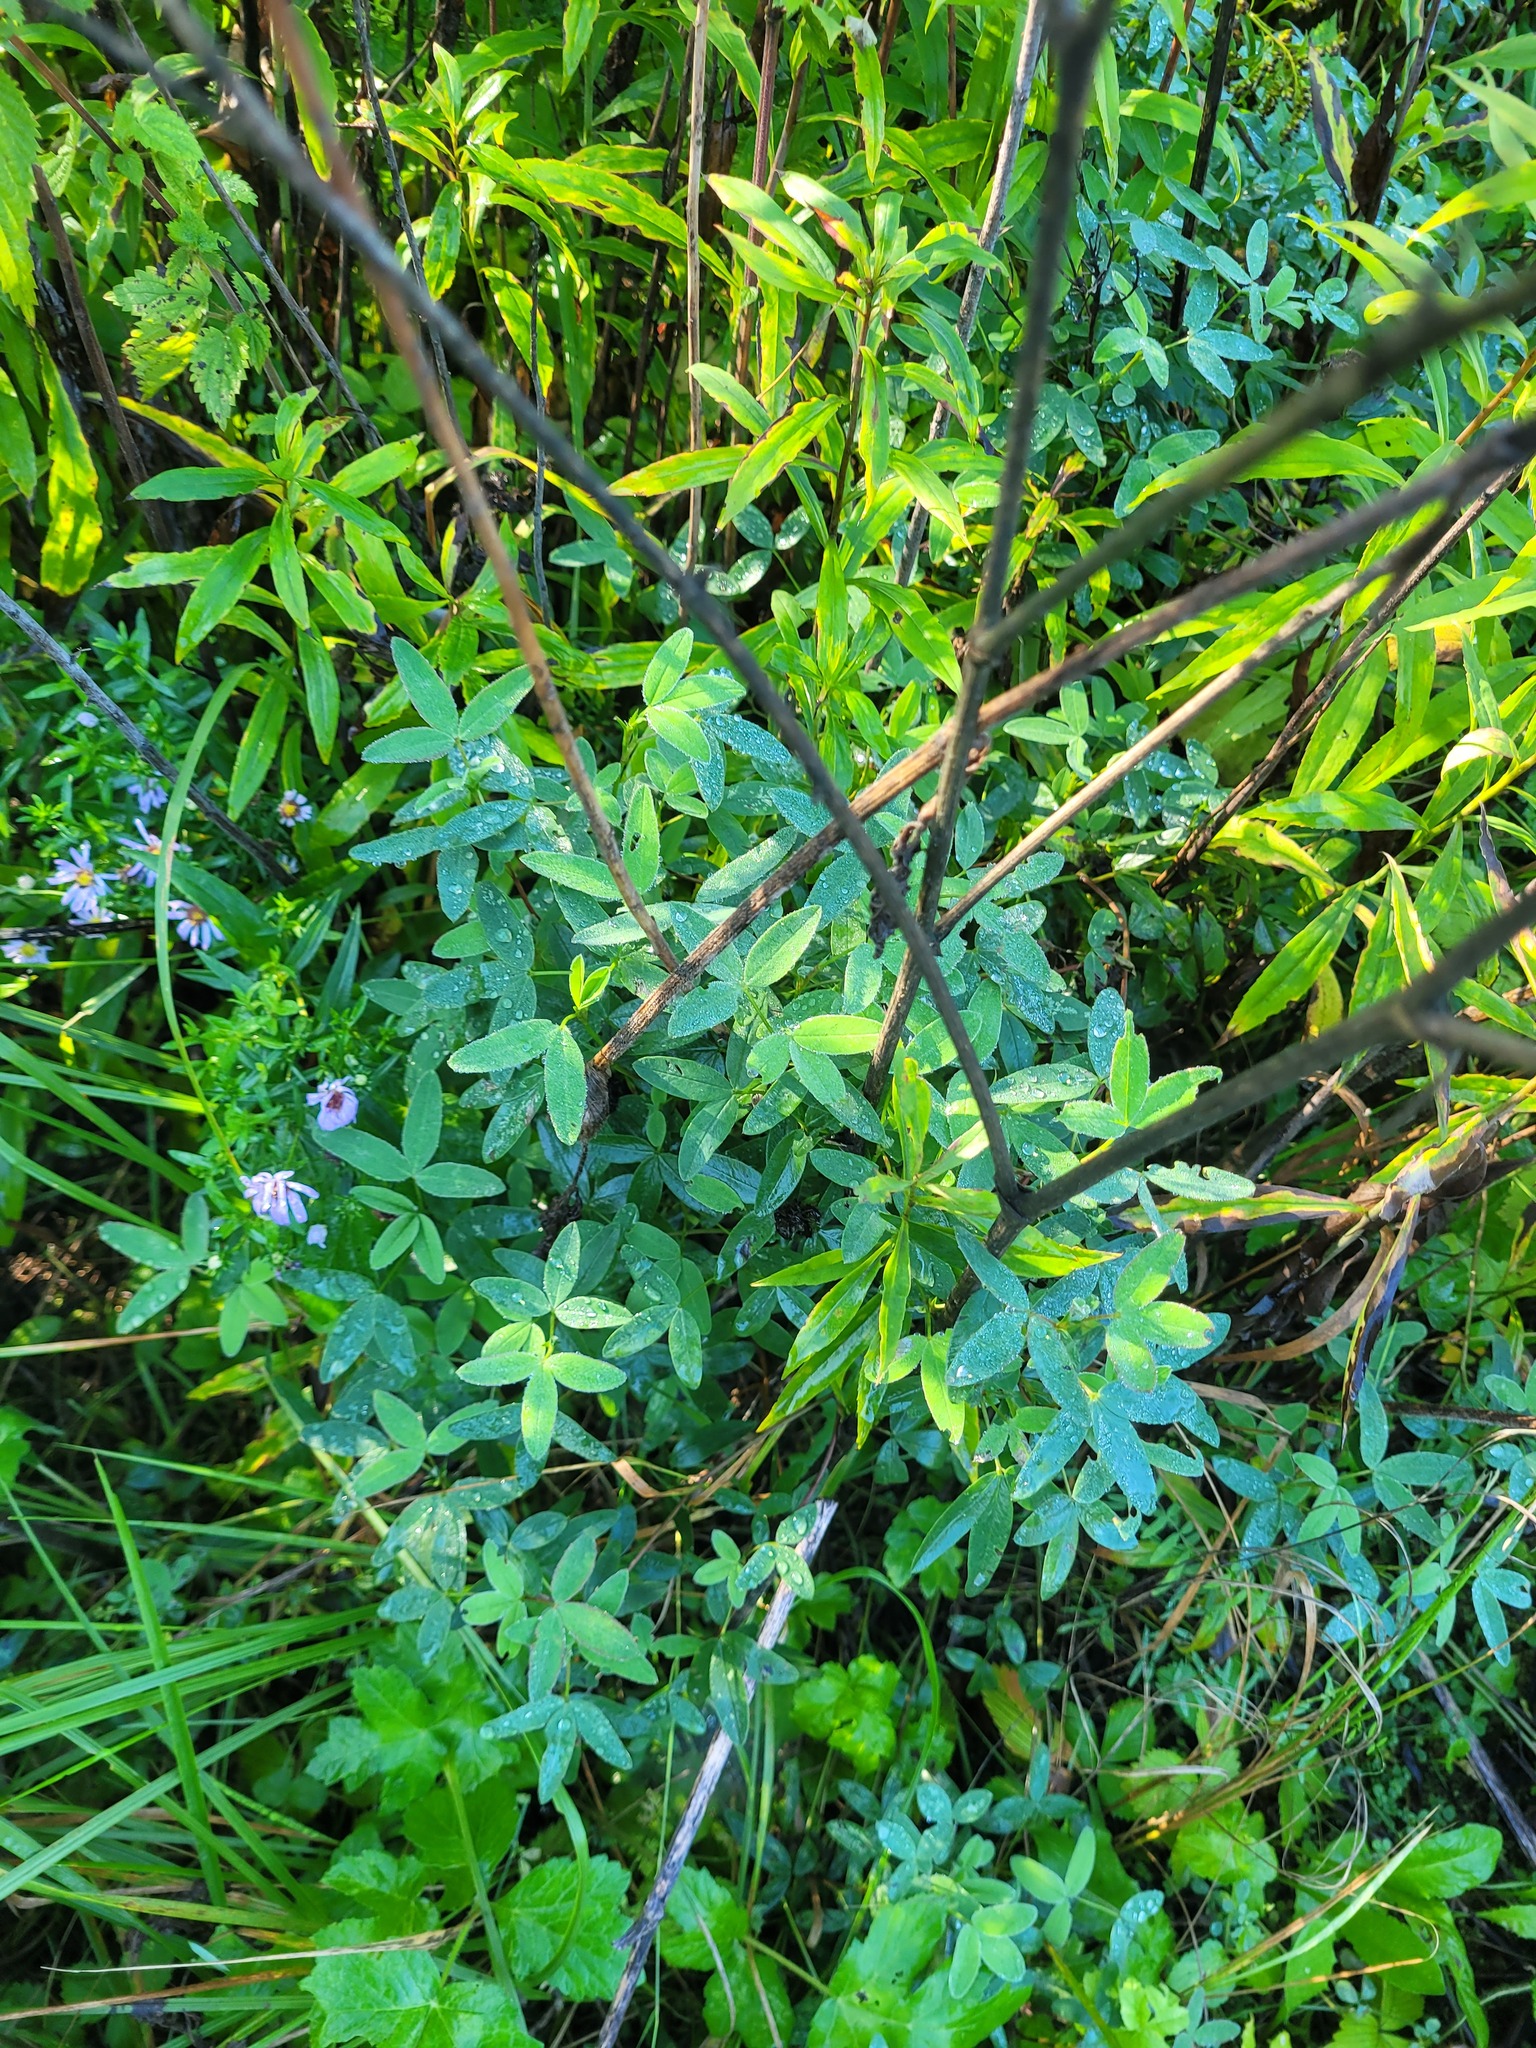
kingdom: Plantae
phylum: Tracheophyta
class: Magnoliopsida
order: Fabales
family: Fabaceae
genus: Trifolium
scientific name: Trifolium medium
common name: Zigzag clover
